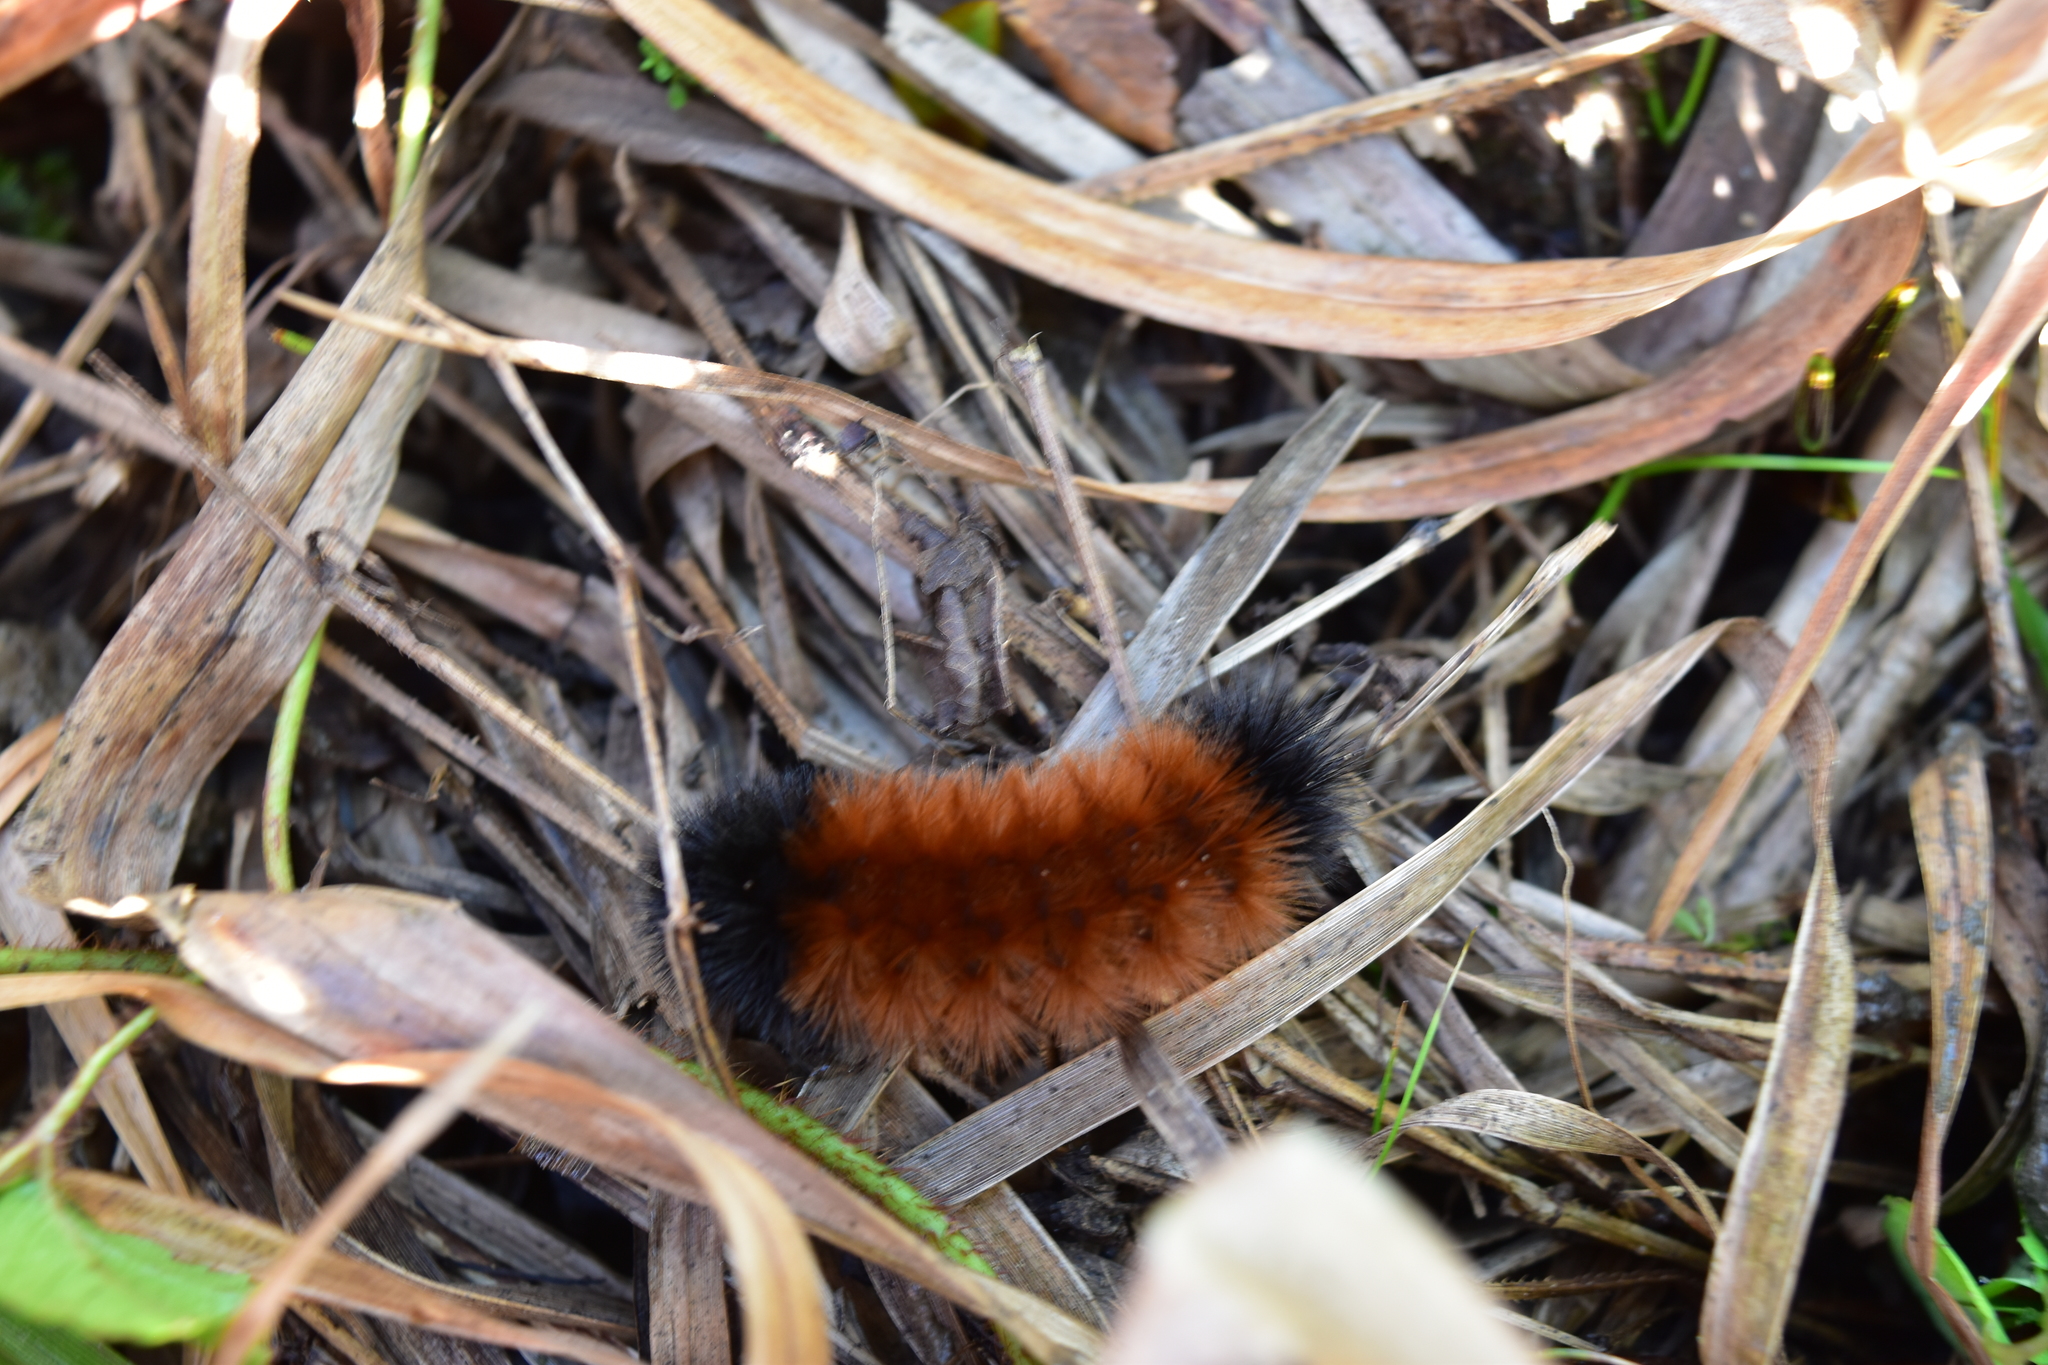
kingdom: Animalia
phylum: Arthropoda
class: Insecta
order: Lepidoptera
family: Erebidae
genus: Pyrrharctia
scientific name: Pyrrharctia isabella
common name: Isabella tiger moth
